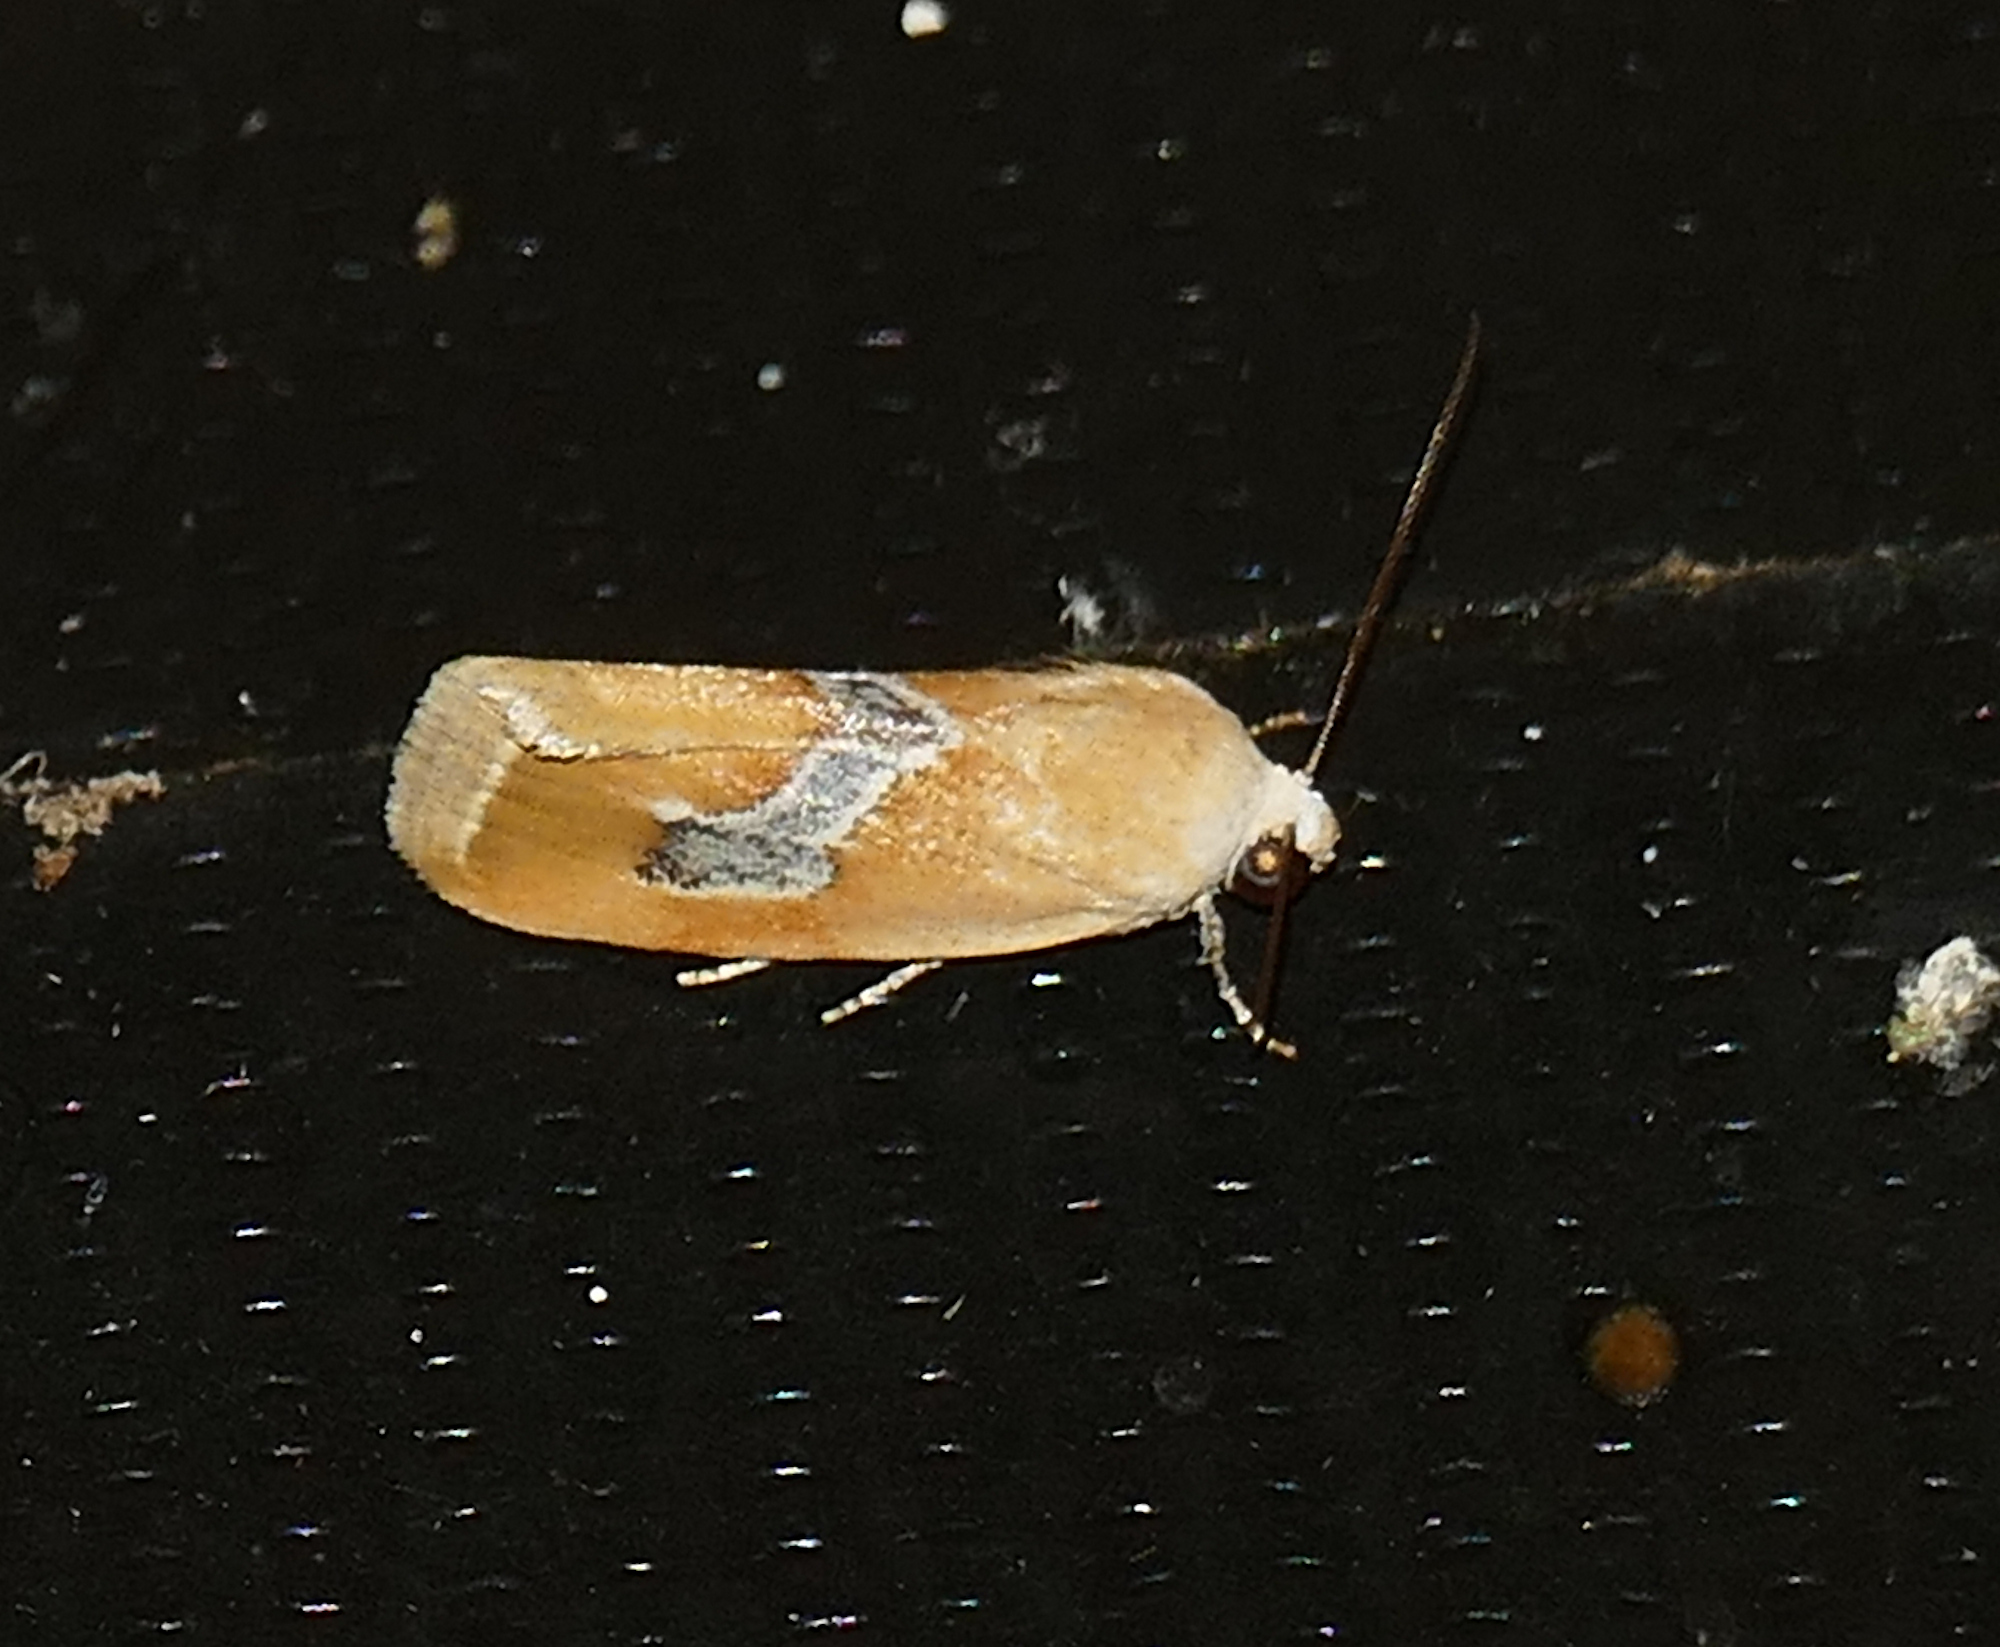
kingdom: Animalia
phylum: Arthropoda
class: Insecta
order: Lepidoptera
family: Noctuidae
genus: Ponometia
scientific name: Ponometia venustula
